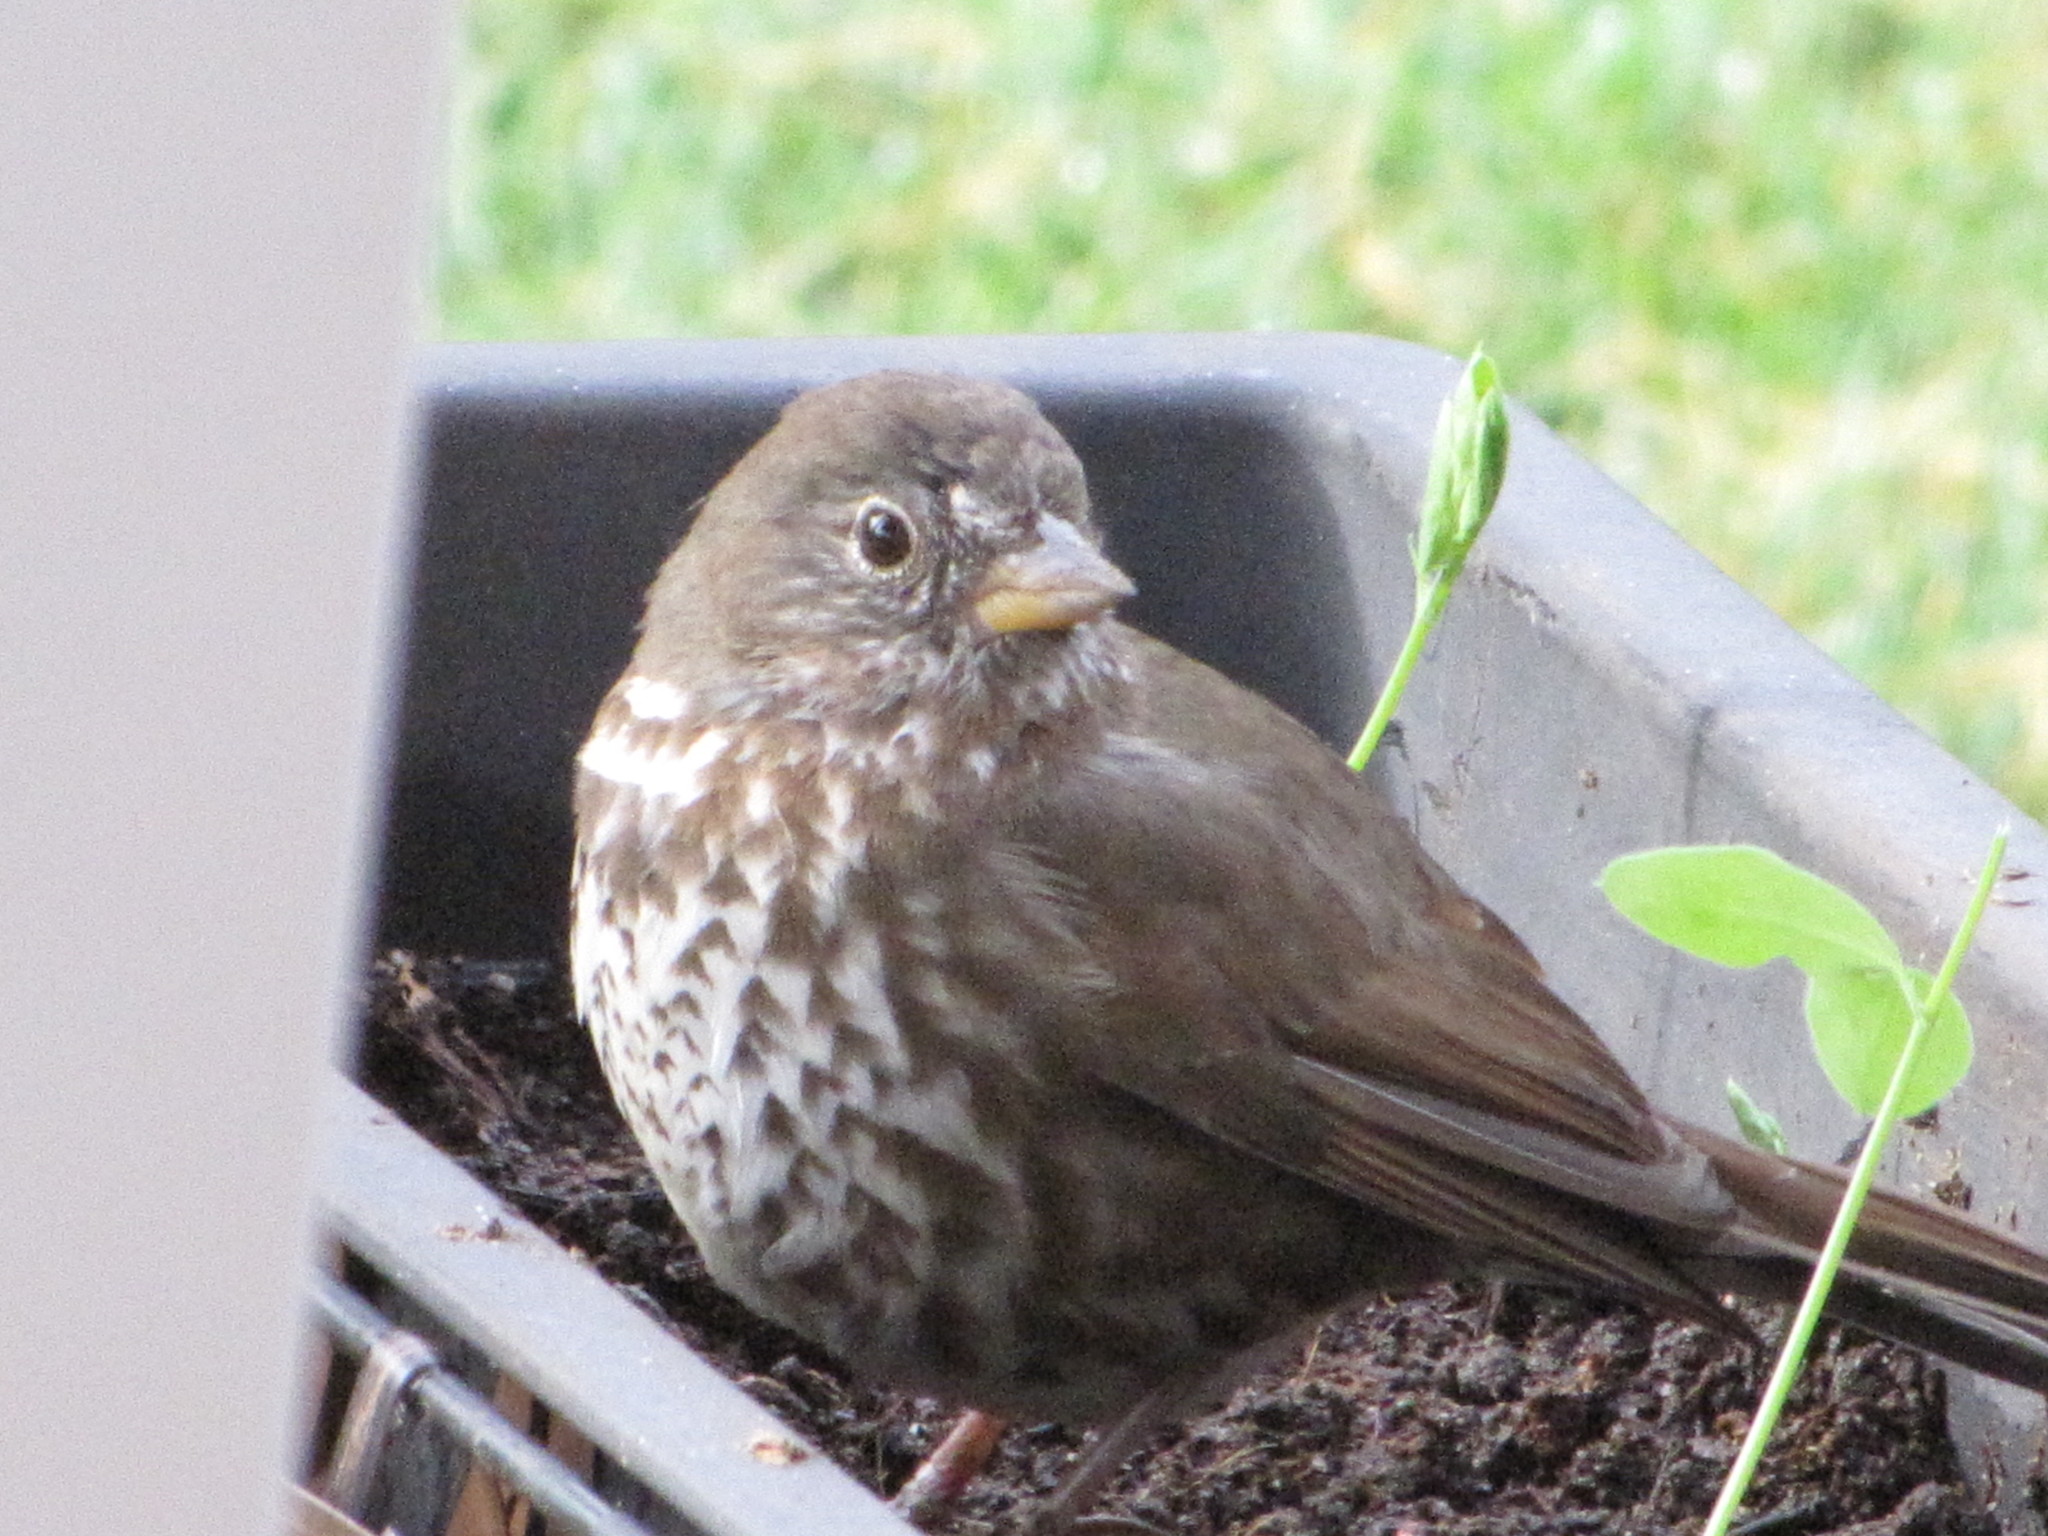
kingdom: Animalia
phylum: Chordata
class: Aves
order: Passeriformes
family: Passerellidae
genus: Passerella
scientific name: Passerella iliaca
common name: Fox sparrow
